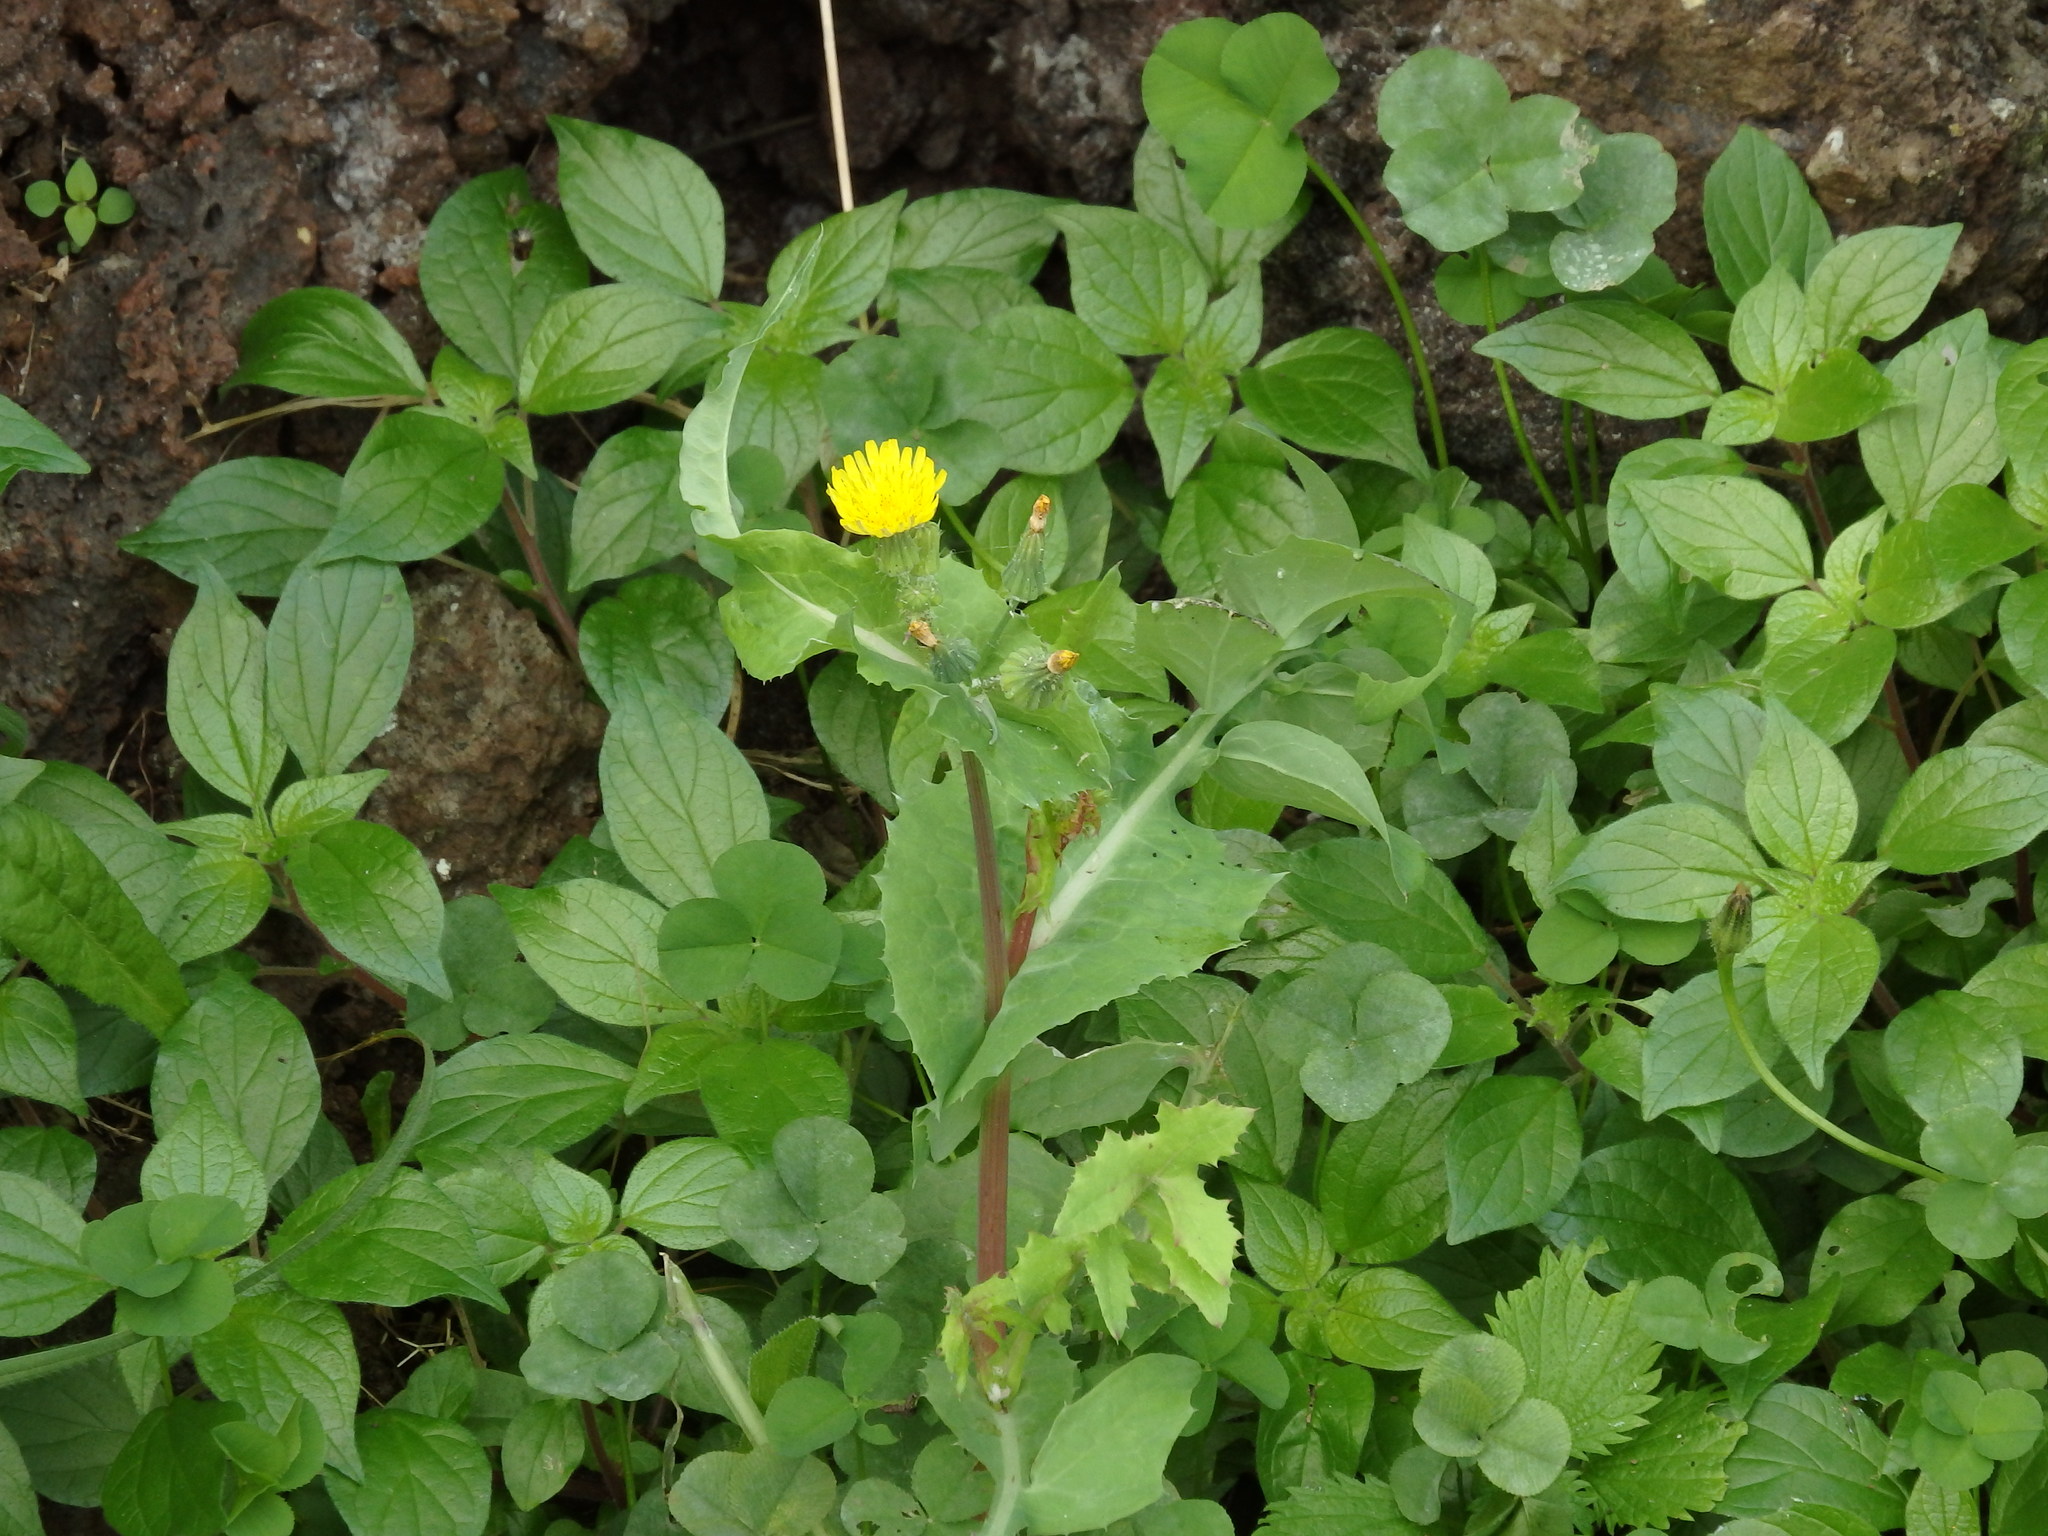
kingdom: Plantae
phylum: Tracheophyta
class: Magnoliopsida
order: Asterales
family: Asteraceae
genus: Sonchus
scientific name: Sonchus oleraceus
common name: Common sowthistle
